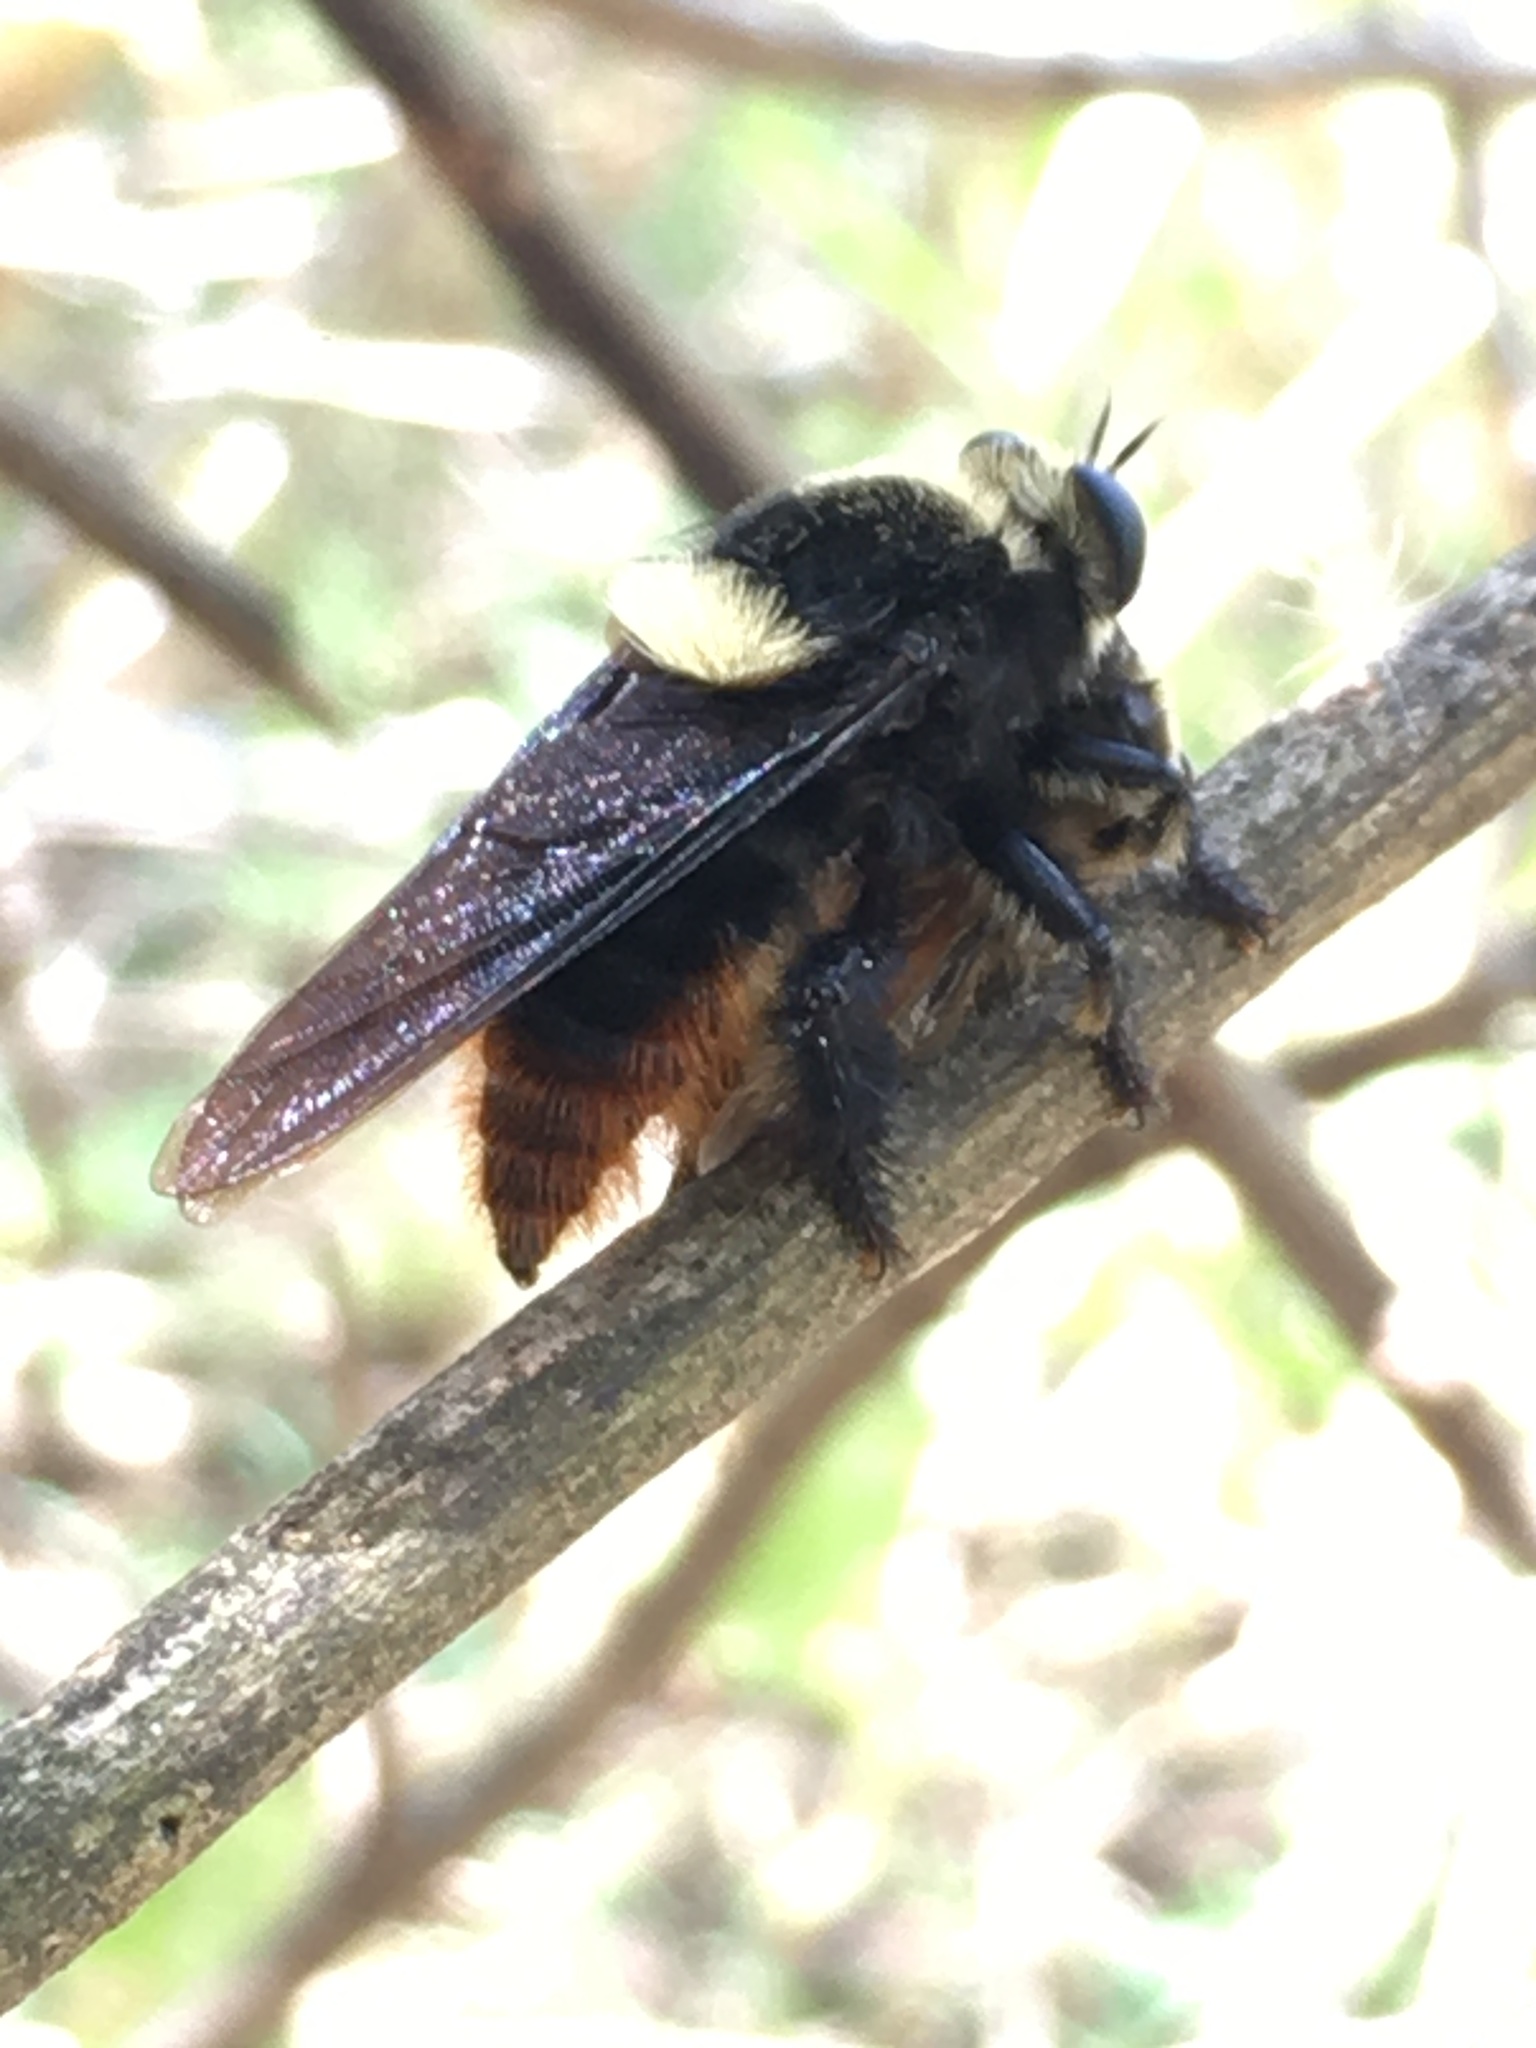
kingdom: Animalia
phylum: Arthropoda
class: Insecta
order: Diptera
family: Asilidae
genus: Mallophora
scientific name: Mallophora ruficauda
